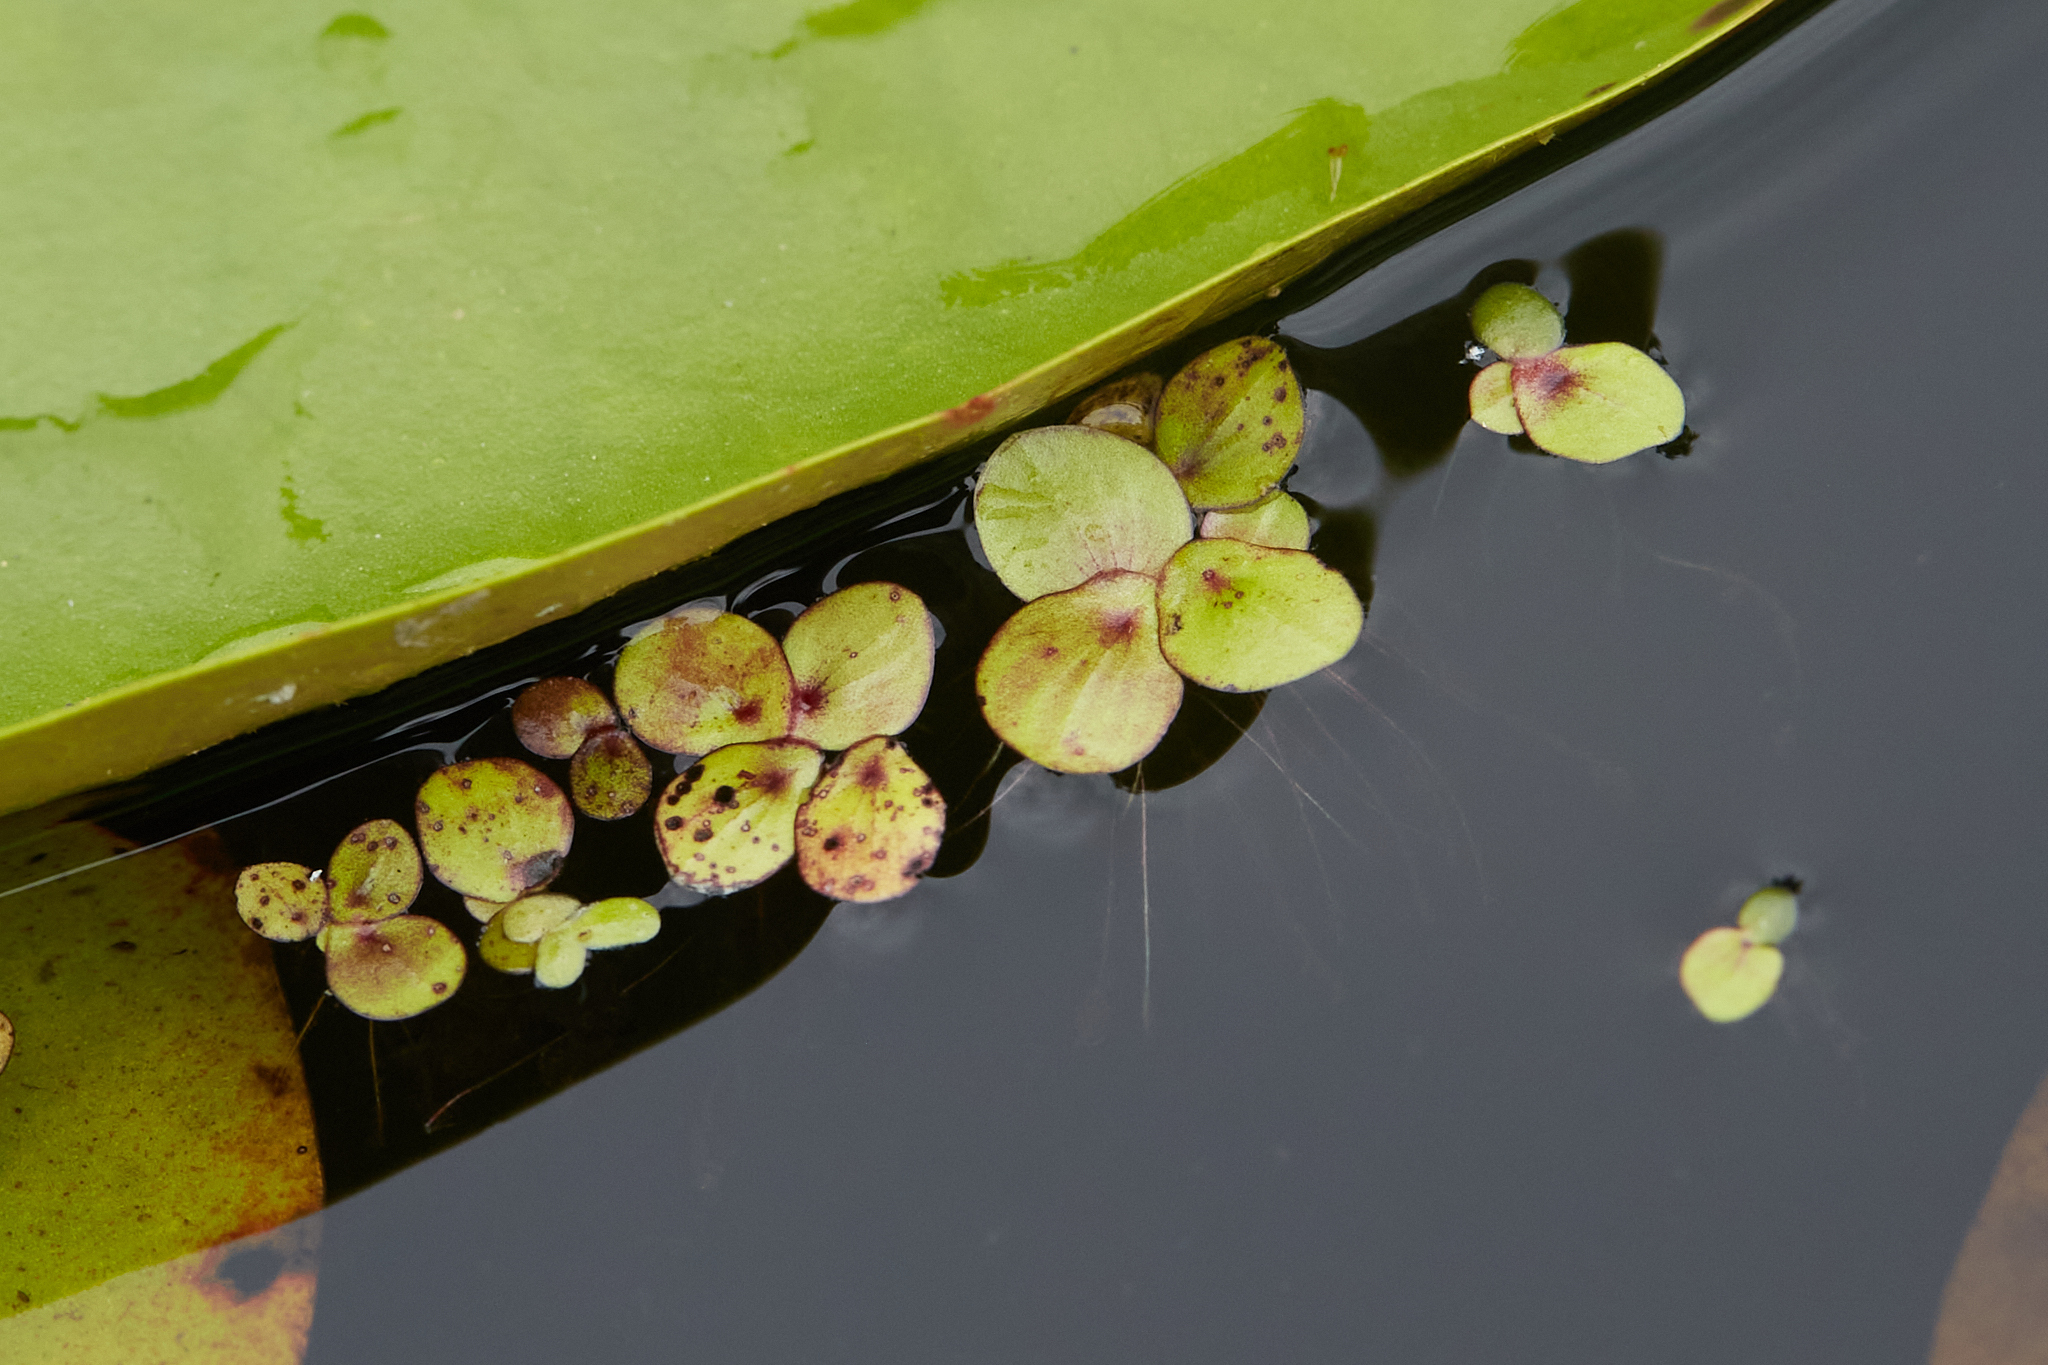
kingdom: Plantae
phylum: Tracheophyta
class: Liliopsida
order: Alismatales
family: Araceae
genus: Spirodela
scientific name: Spirodela polyrhiza
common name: Great duckweed
